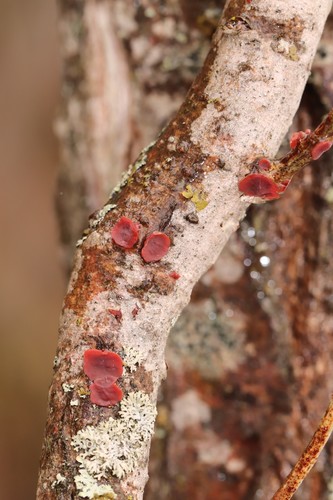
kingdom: Fungi
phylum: Basidiomycota
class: Agaricomycetes
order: Corticiales
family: Vuilleminiaceae
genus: Cytidia
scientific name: Cytidia salicina
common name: Scarlet splash
